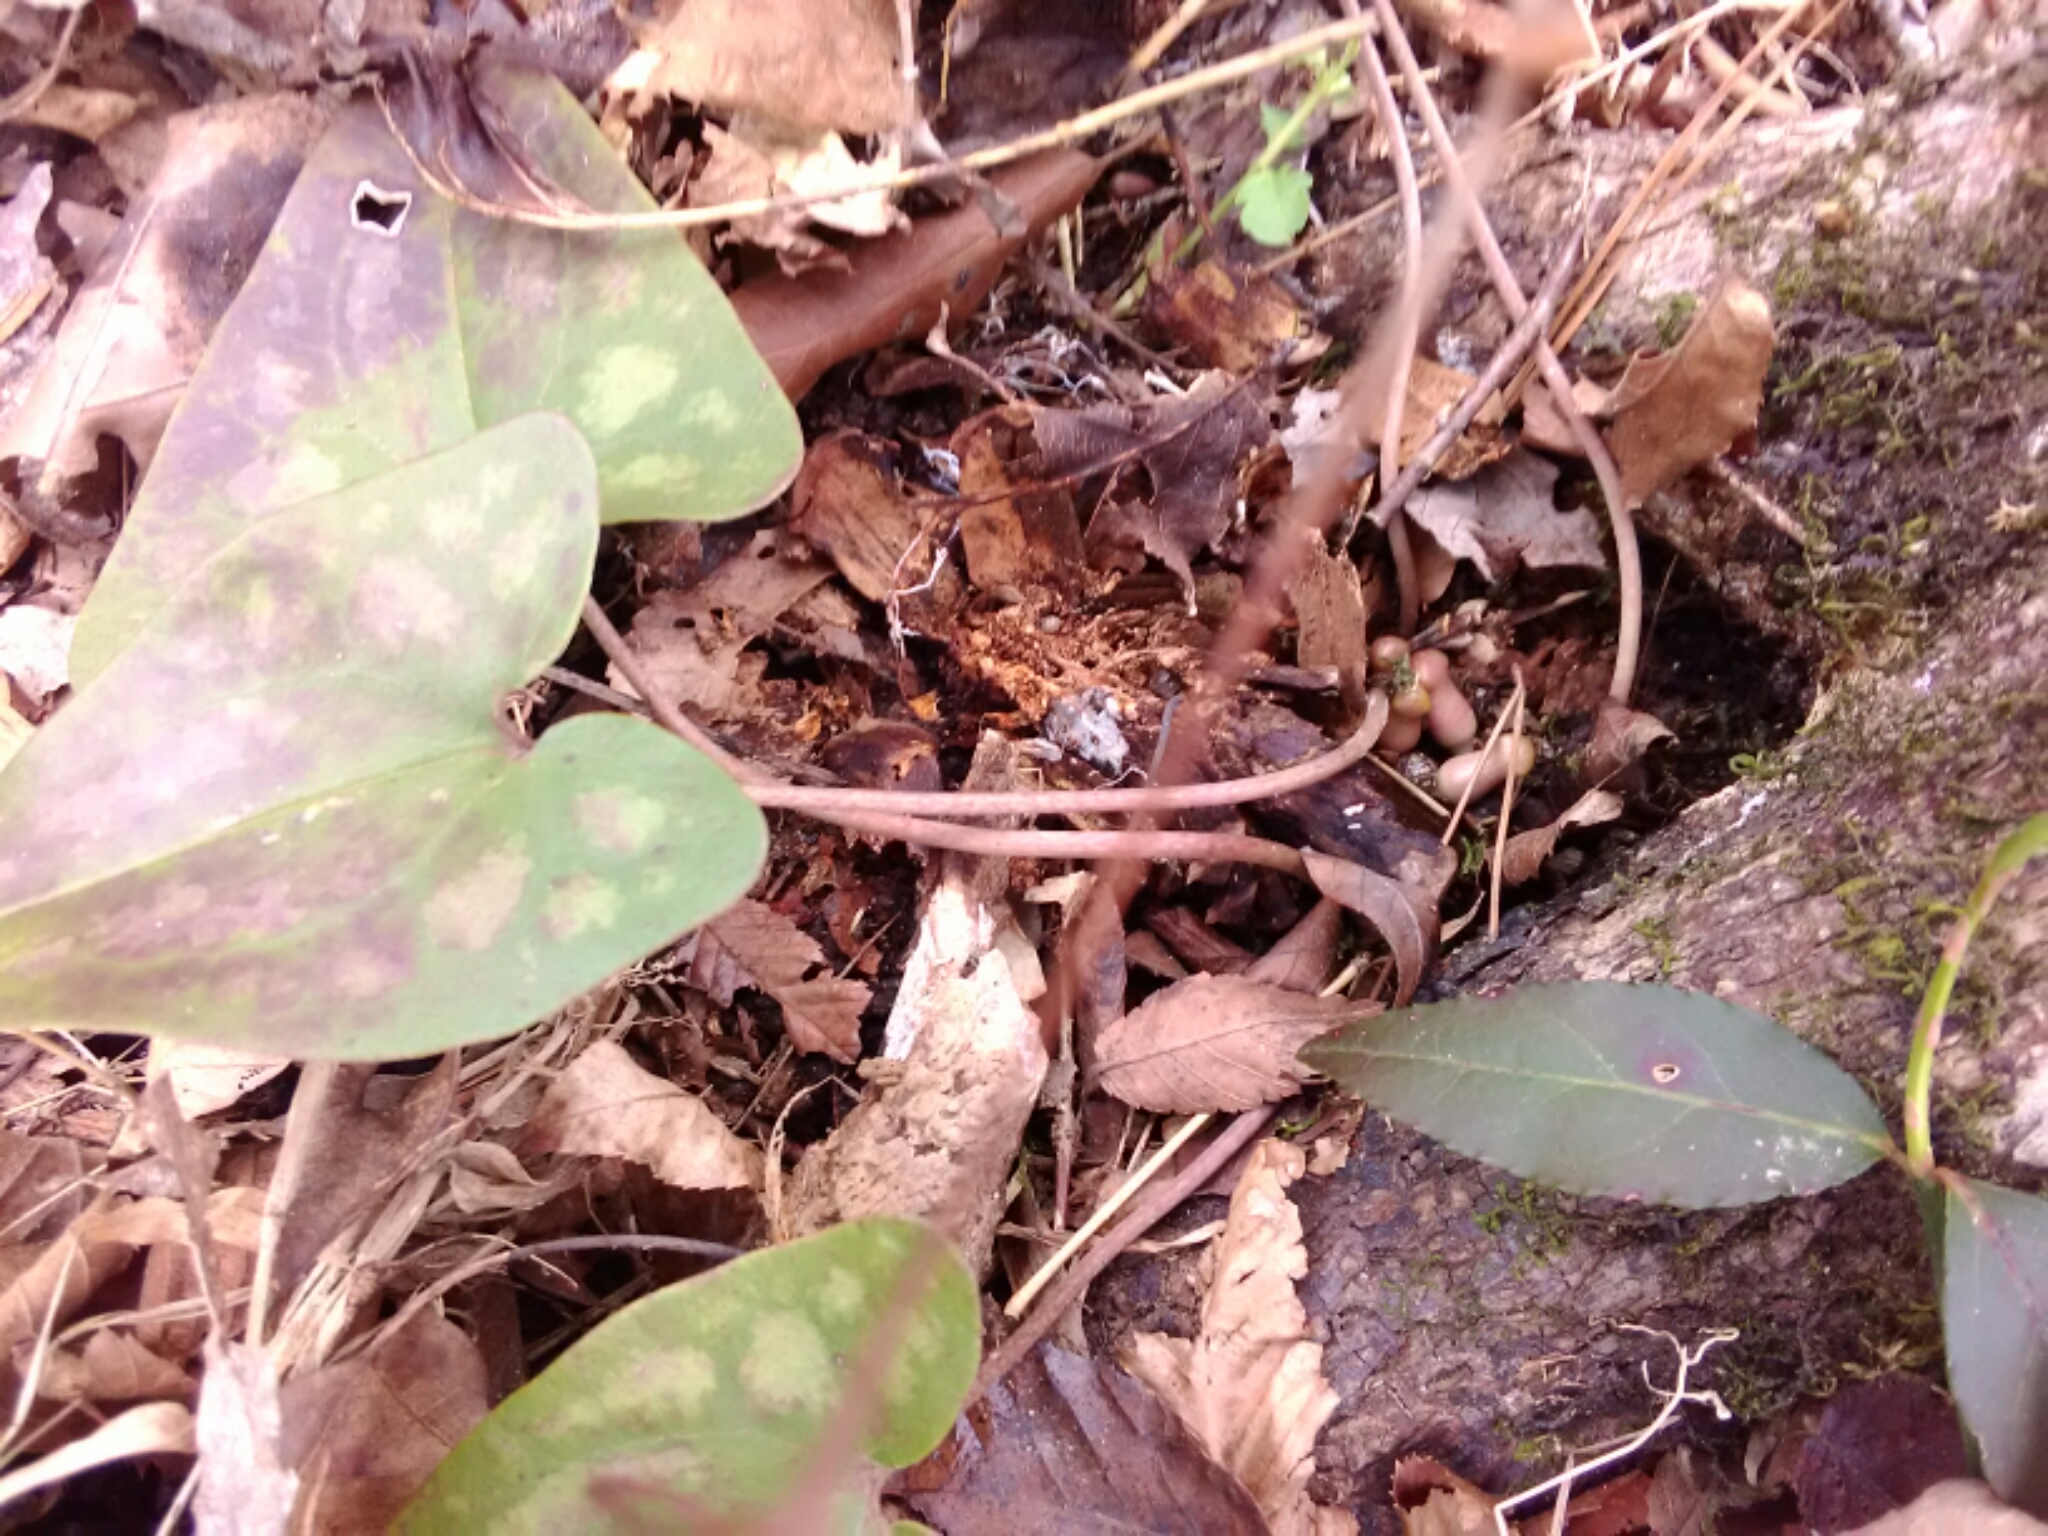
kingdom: Plantae
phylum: Tracheophyta
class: Magnoliopsida
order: Piperales
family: Aristolochiaceae
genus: Hexastylis
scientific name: Hexastylis arifolia
